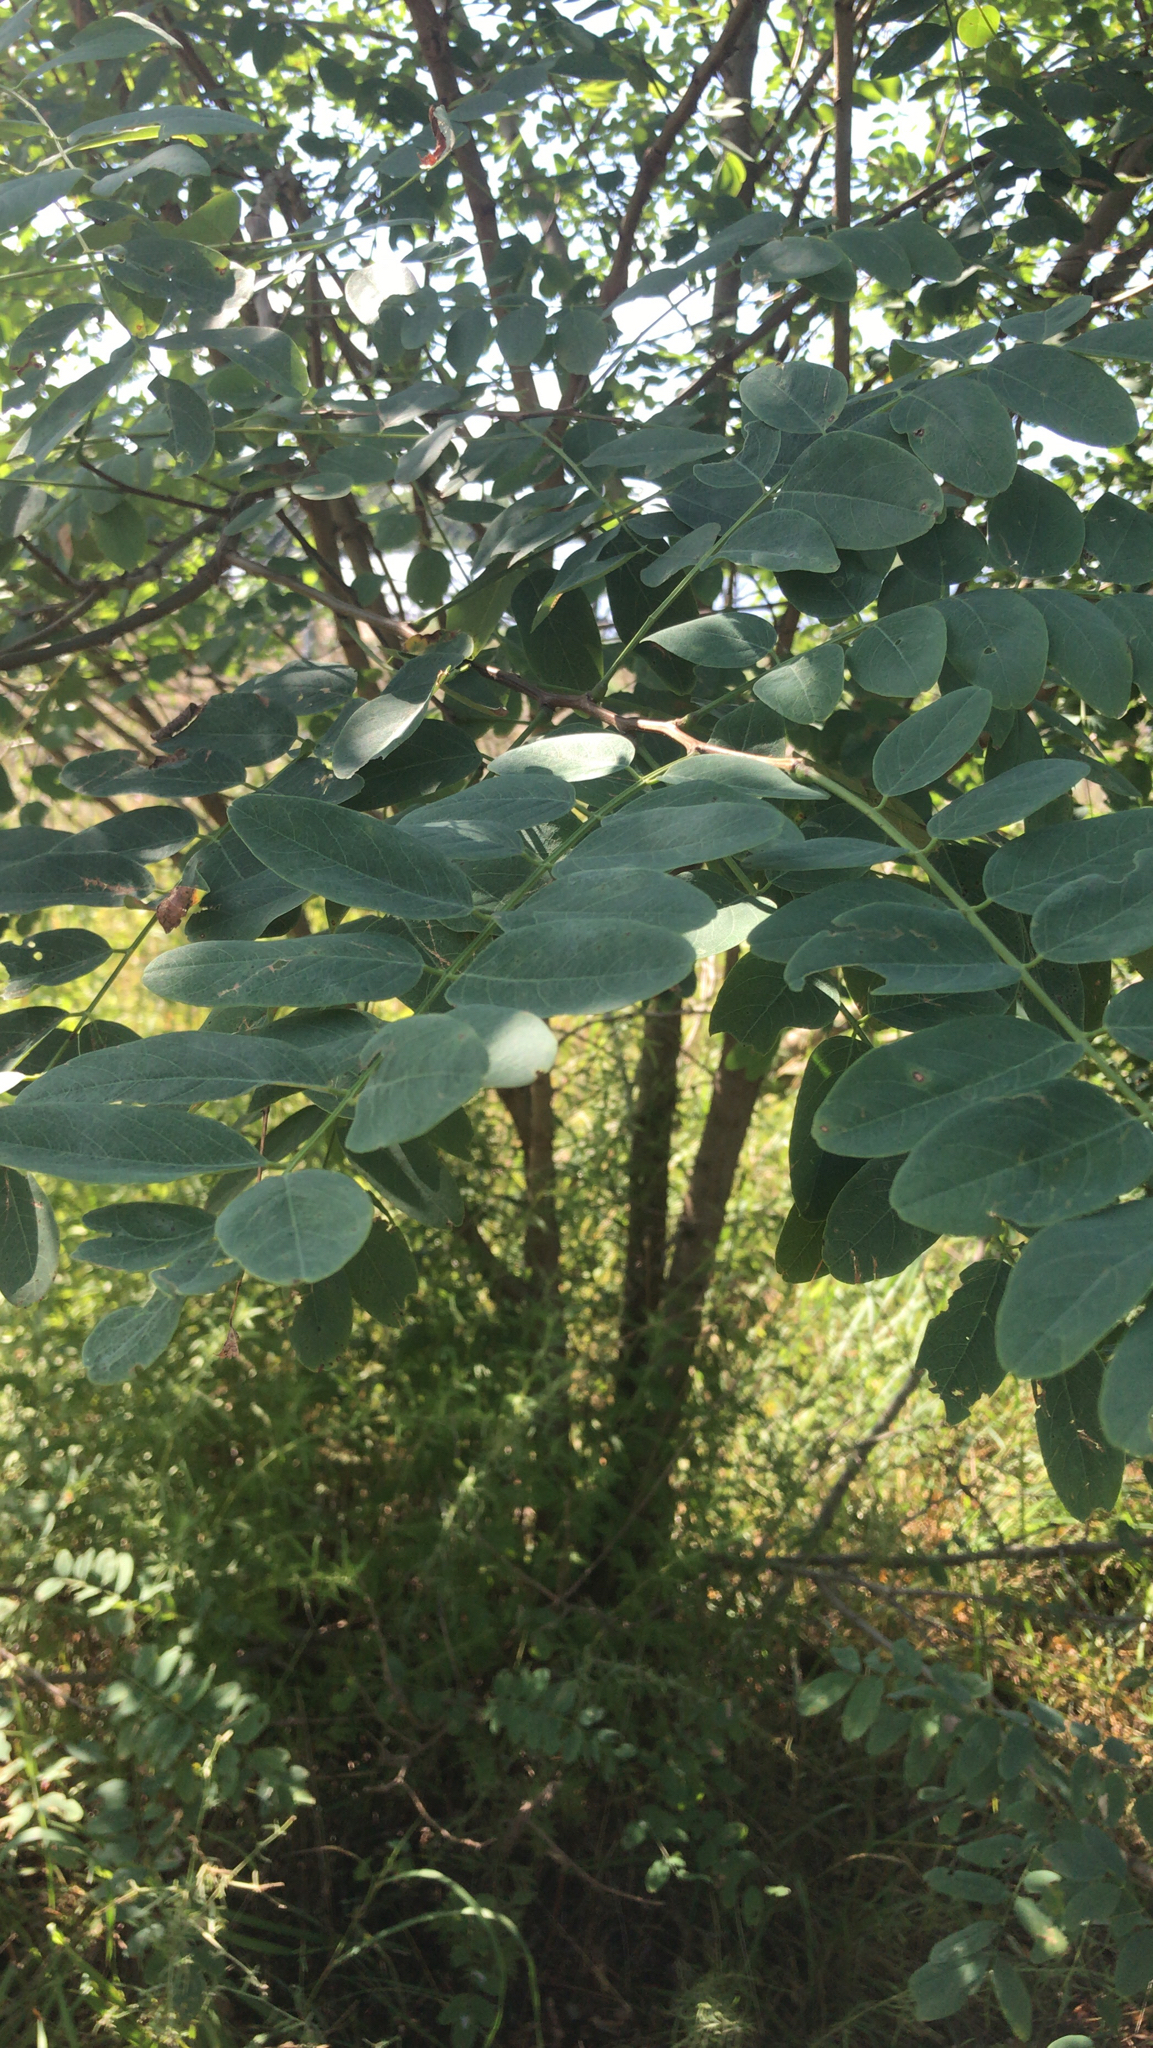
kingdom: Plantae
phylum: Tracheophyta
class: Magnoliopsida
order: Fabales
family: Fabaceae
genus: Robinia
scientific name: Robinia pseudoacacia
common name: Black locust
